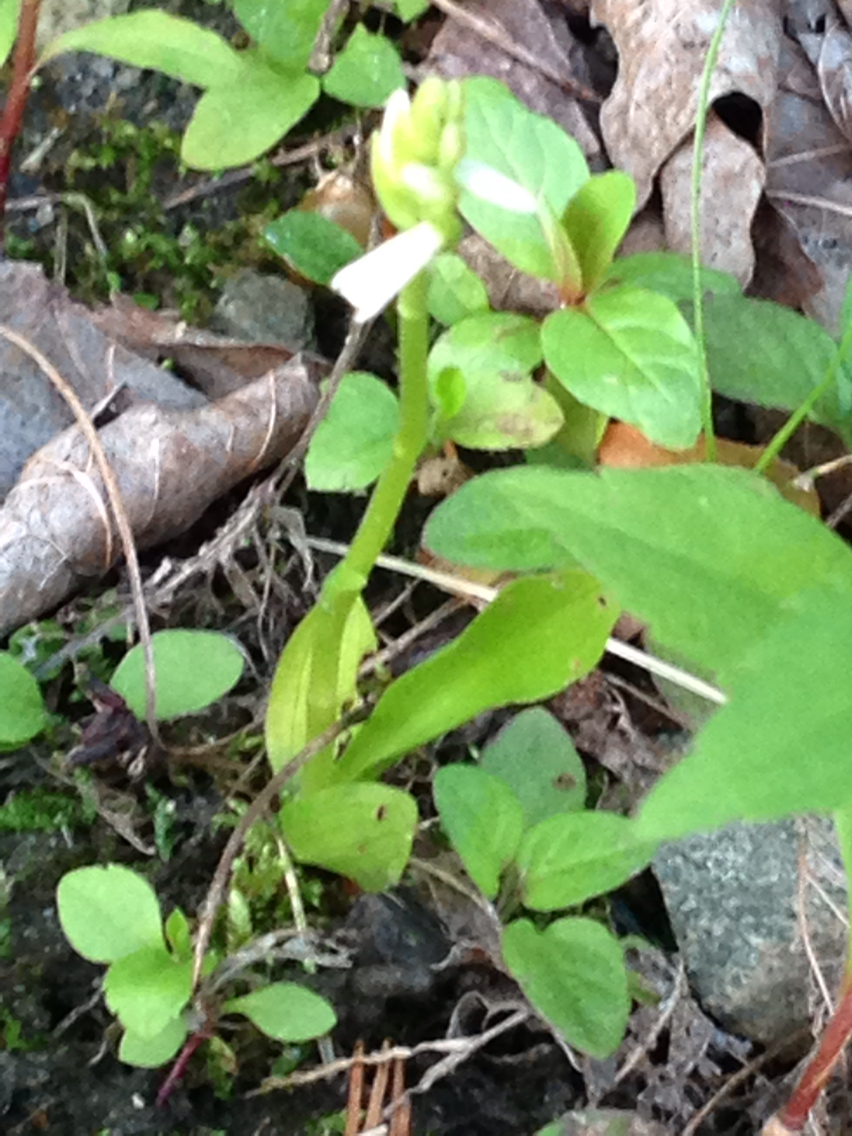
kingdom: Plantae
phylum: Tracheophyta
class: Liliopsida
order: Asparagales
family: Orchidaceae
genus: Spiranthes
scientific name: Spiranthes lucida
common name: Broad-leaved ladies'-tresses
